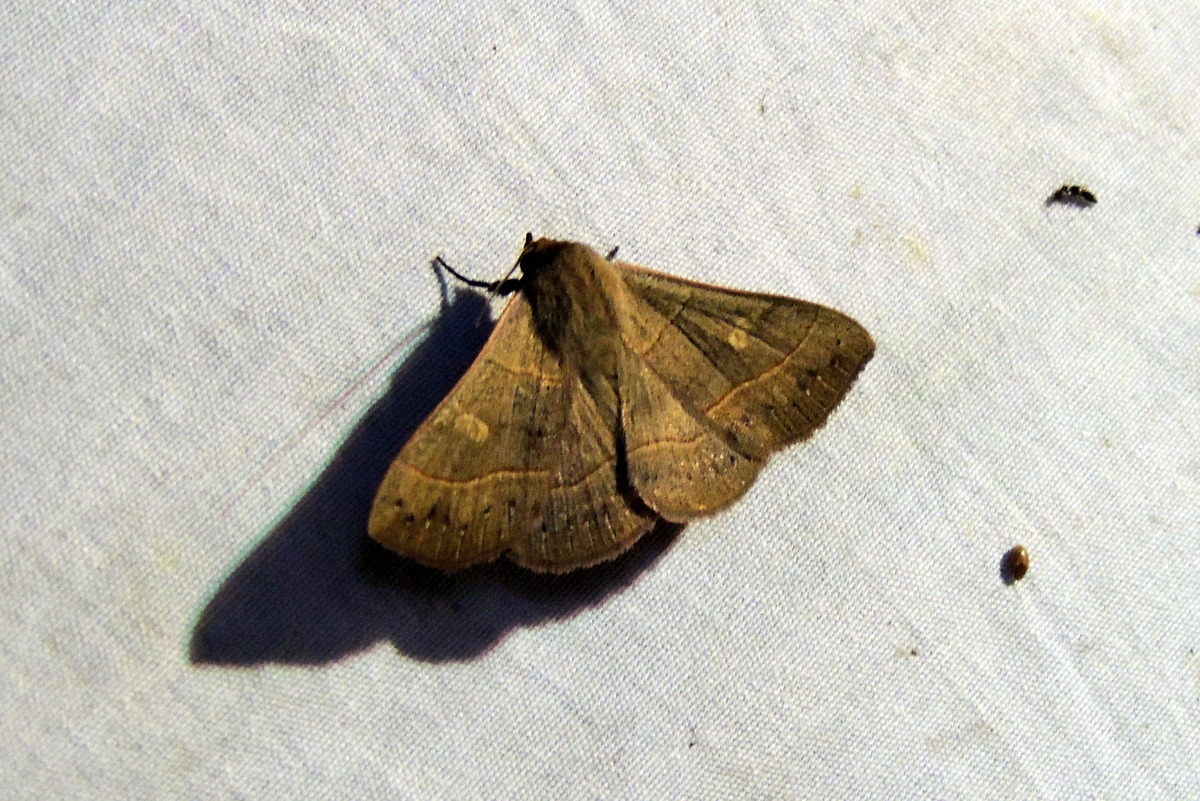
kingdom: Animalia
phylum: Arthropoda
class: Insecta
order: Lepidoptera
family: Erebidae
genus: Panopoda
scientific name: Panopoda rufimargo
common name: Red-lined panopoda moth
